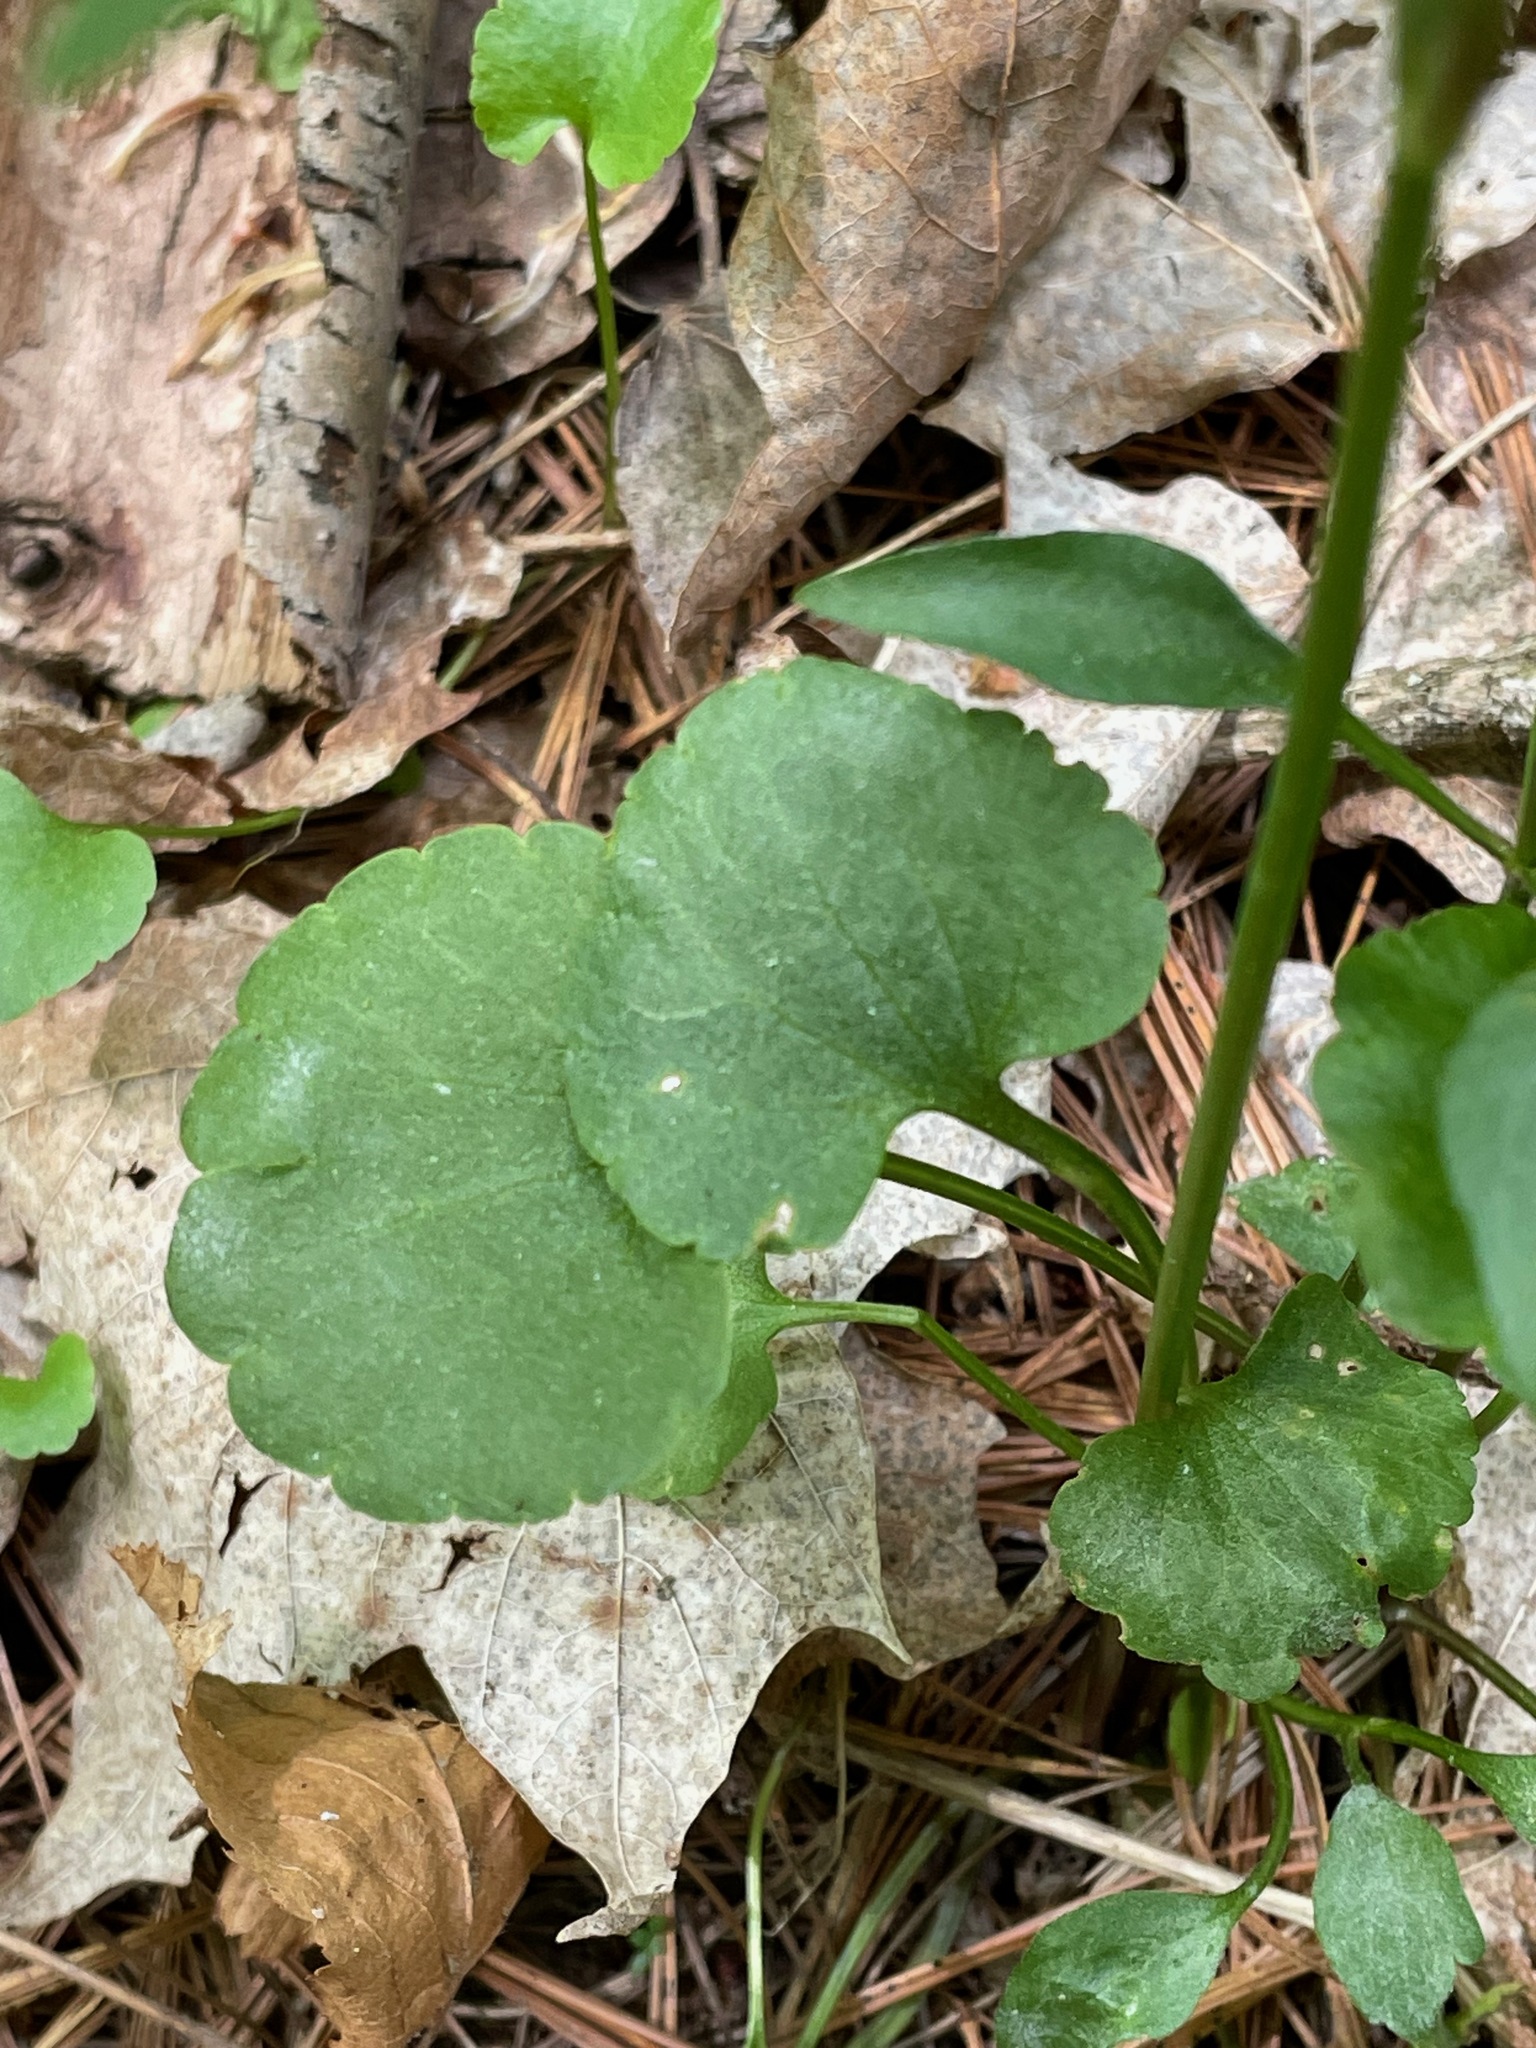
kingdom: Plantae
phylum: Tracheophyta
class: Magnoliopsida
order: Ranunculales
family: Ranunculaceae
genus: Ranunculus
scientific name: Ranunculus abortivus
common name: Early wood buttercup
